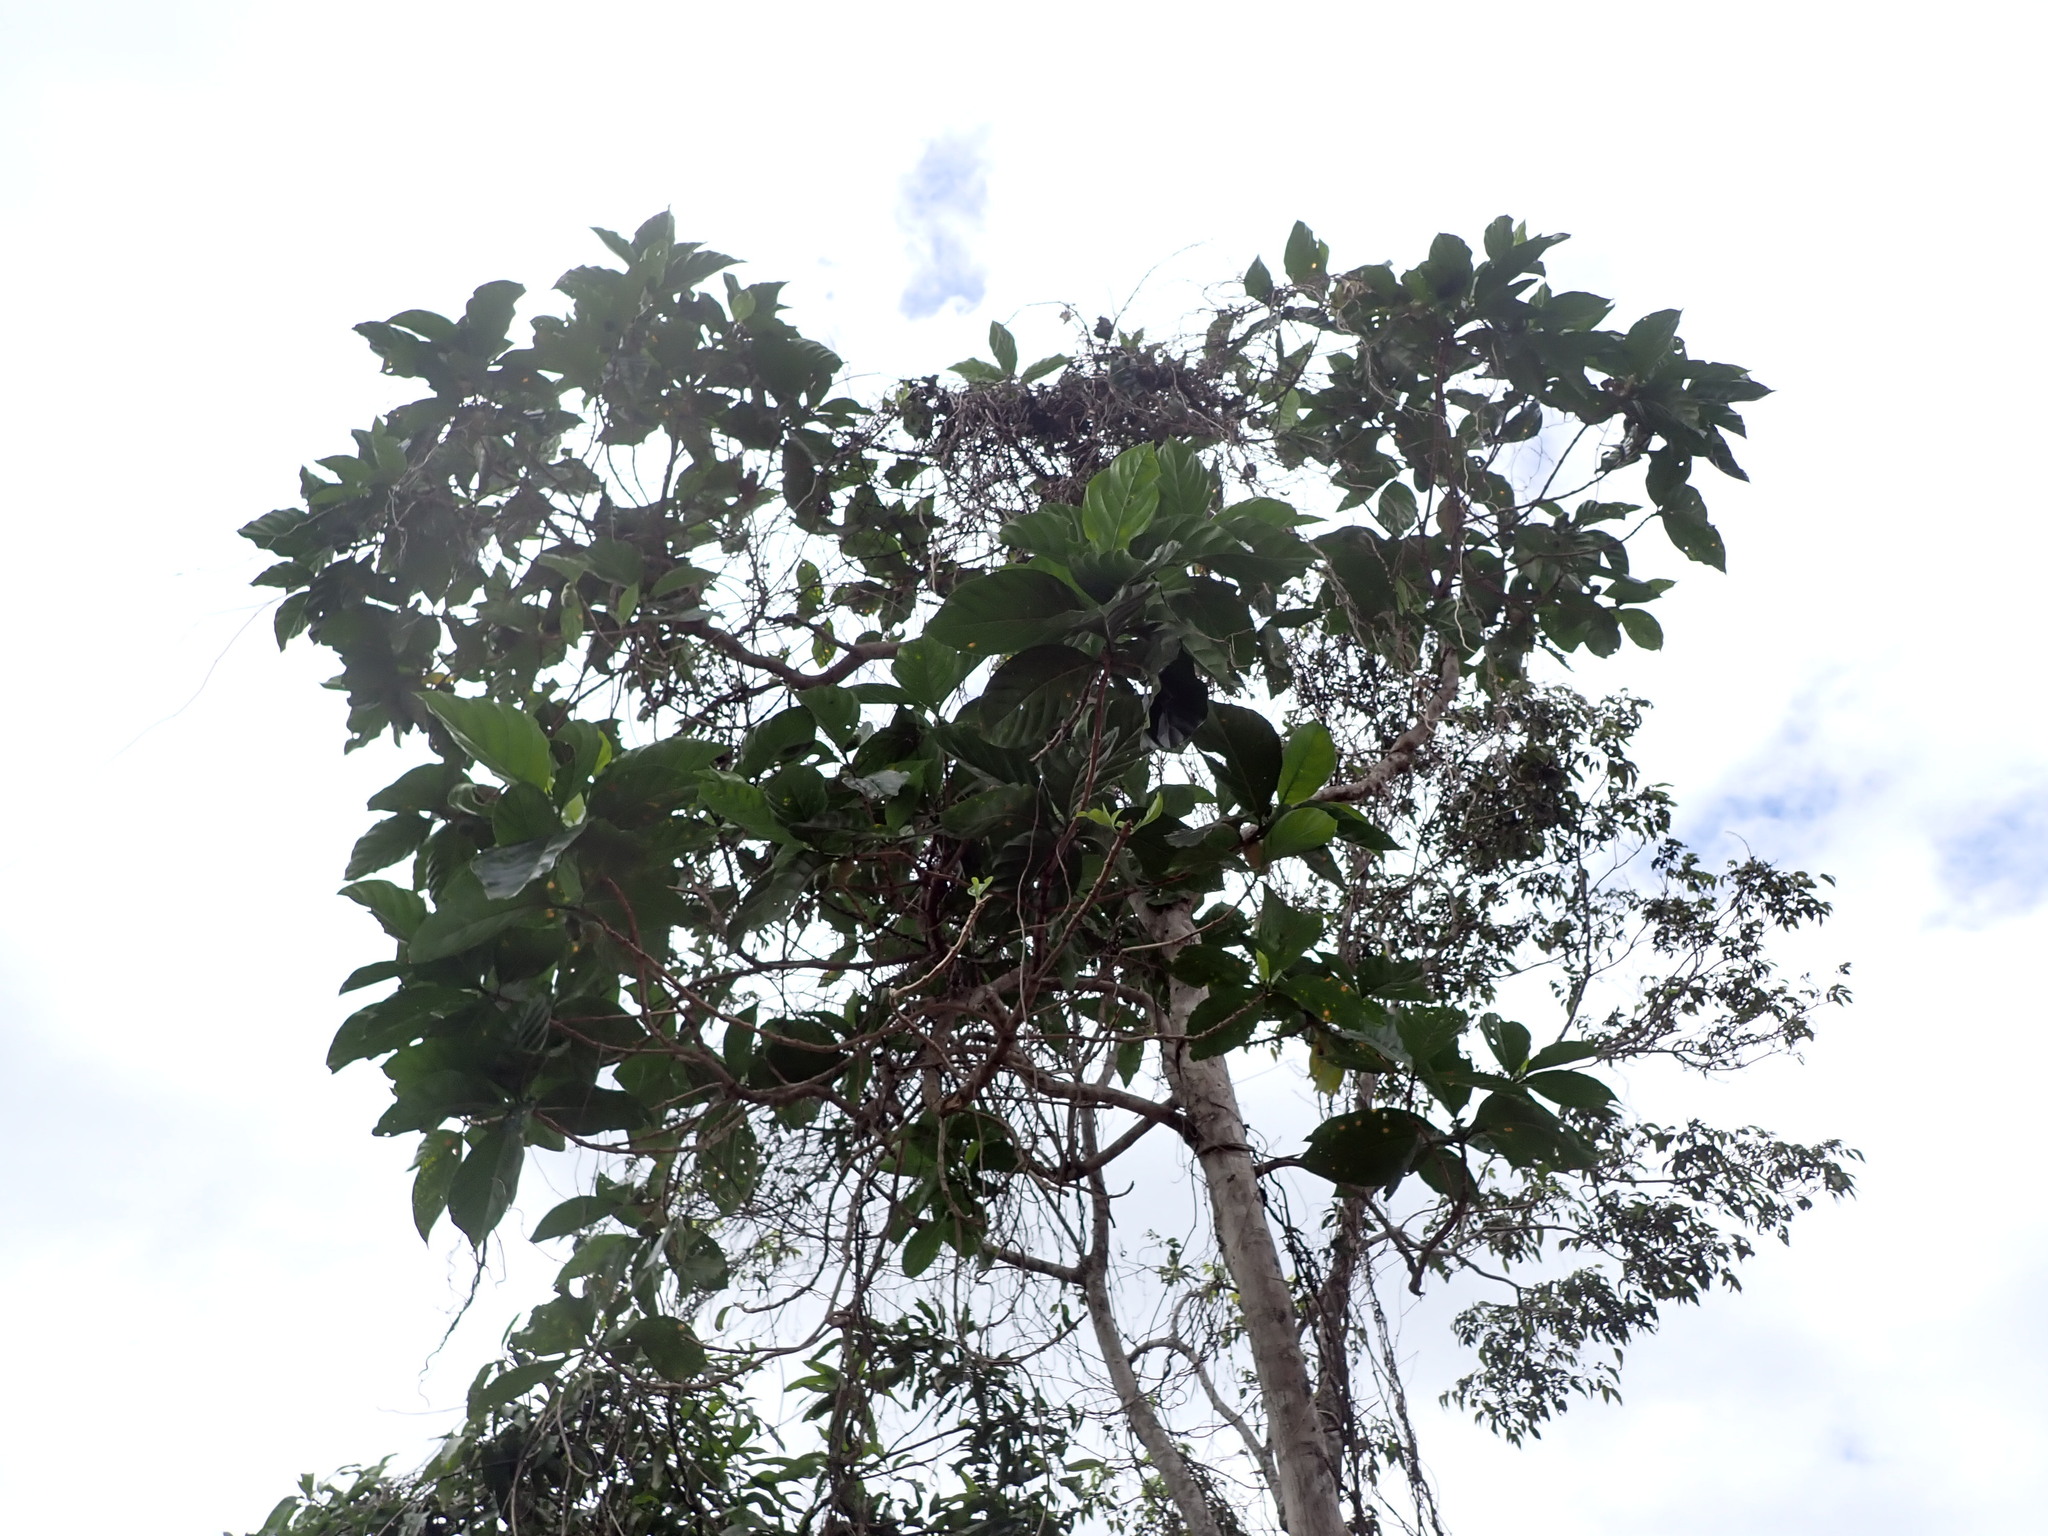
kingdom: Plantae
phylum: Tracheophyta
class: Magnoliopsida
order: Gentianales
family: Rubiaceae
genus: Morinda
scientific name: Morinda citrifolia
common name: Indian-mulberry
